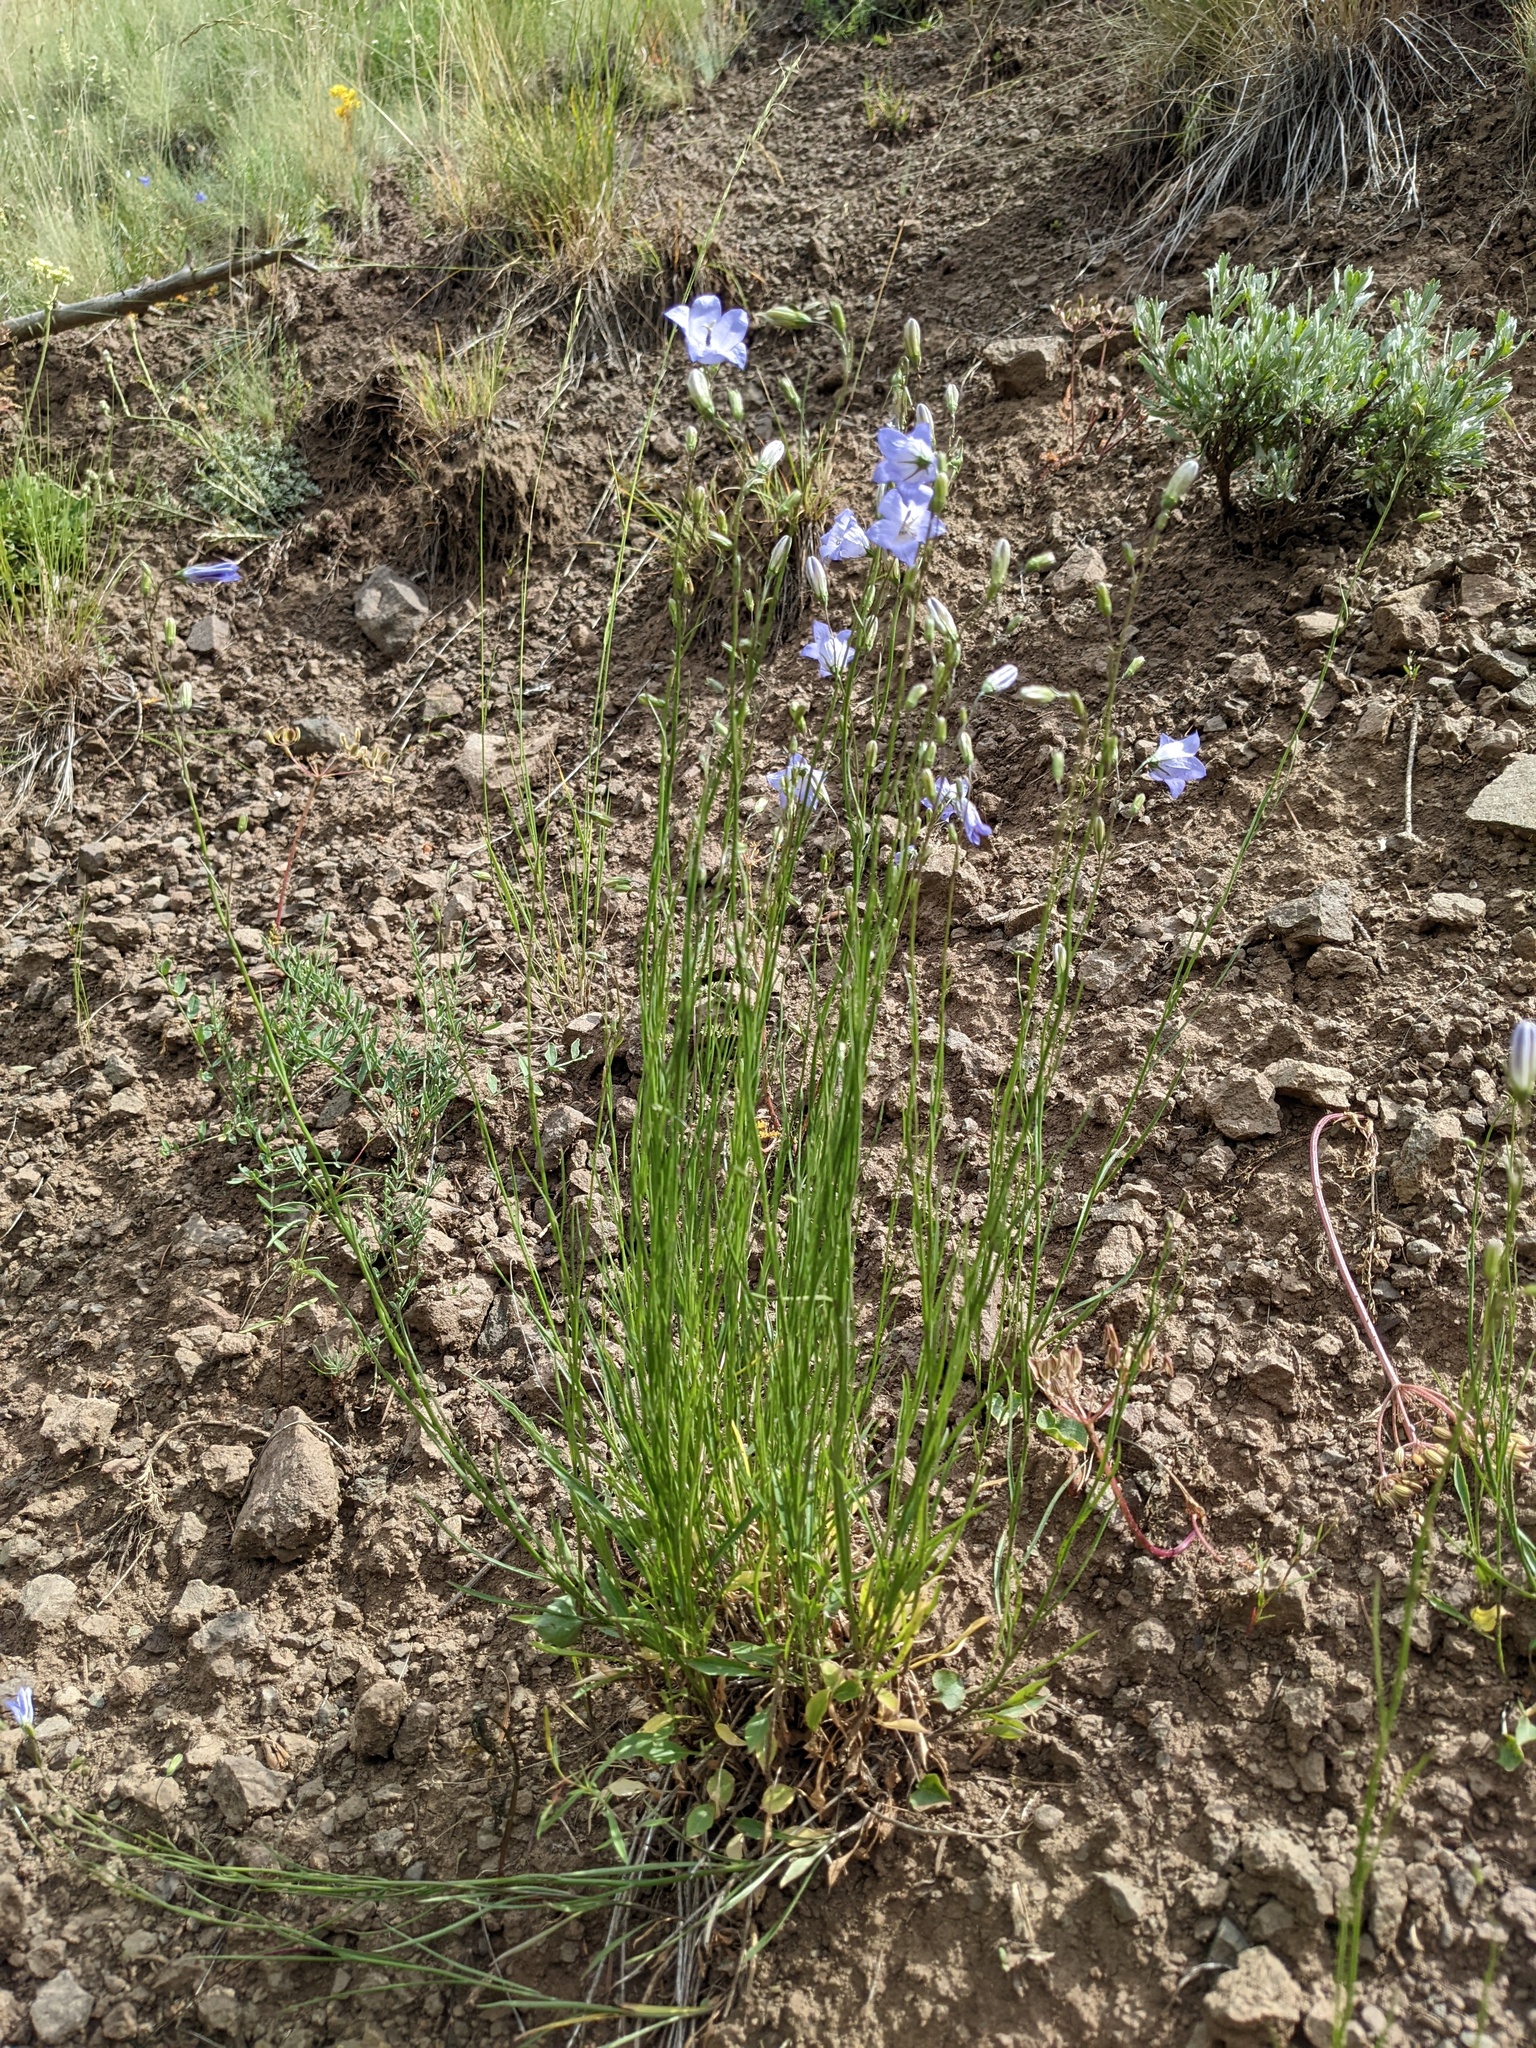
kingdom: Plantae
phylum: Tracheophyta
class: Magnoliopsida
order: Asterales
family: Campanulaceae
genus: Campanula
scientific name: Campanula
